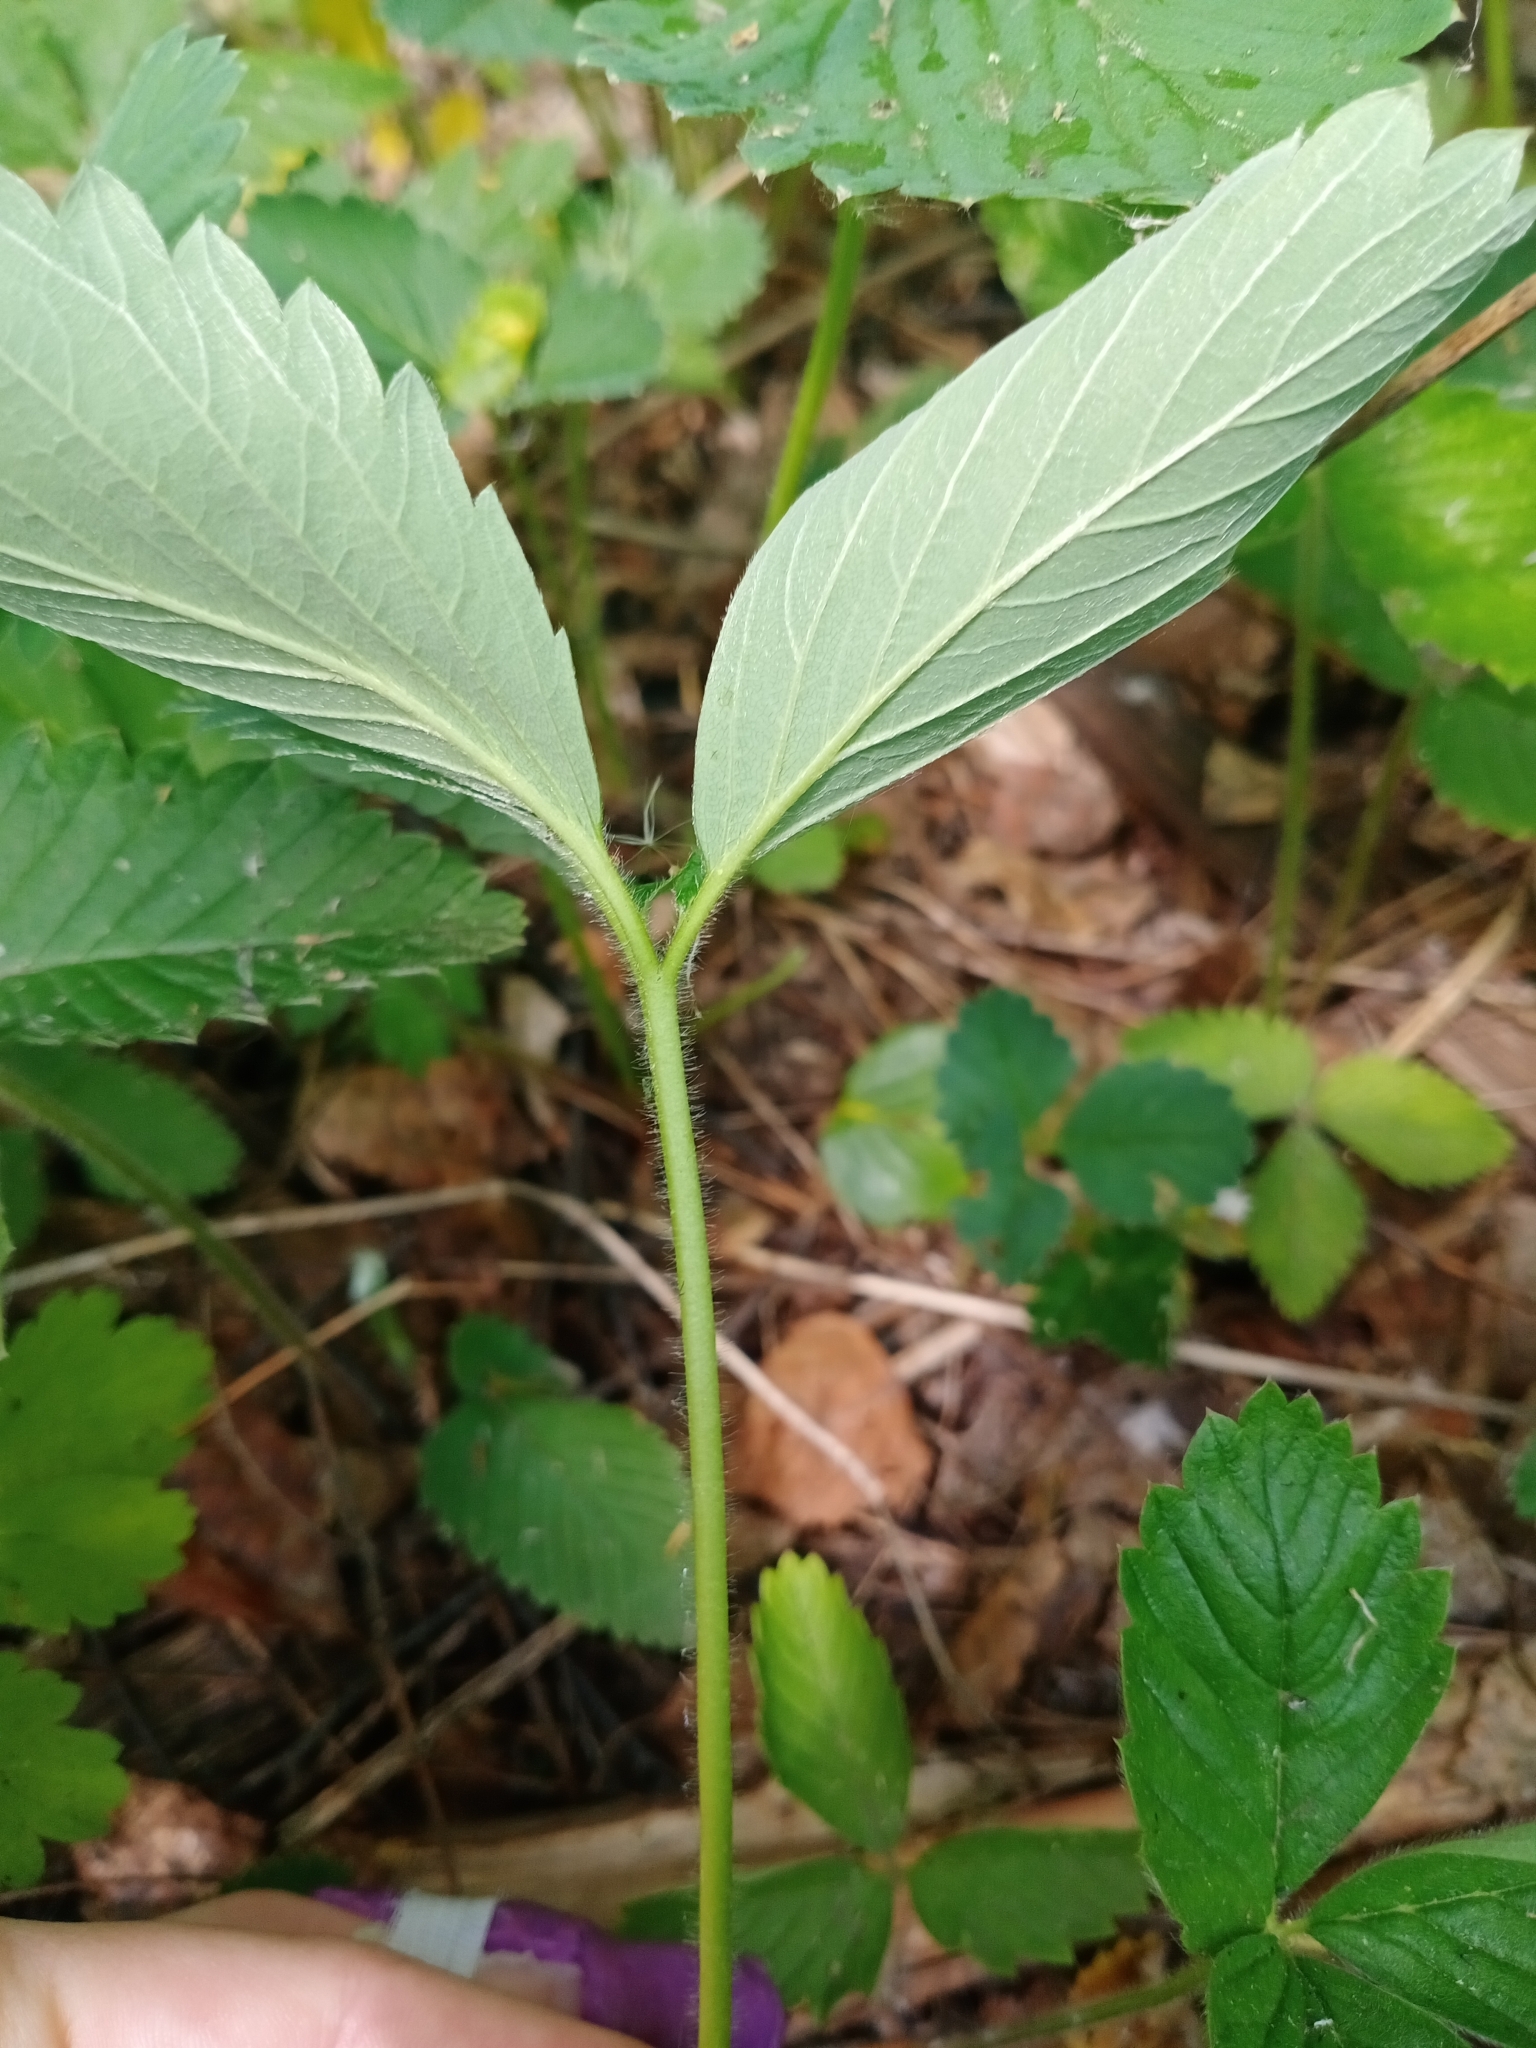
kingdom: Plantae
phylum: Tracheophyta
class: Magnoliopsida
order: Rosales
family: Rosaceae
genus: Fragaria
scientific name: Fragaria ananassa
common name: Garden strawberry
